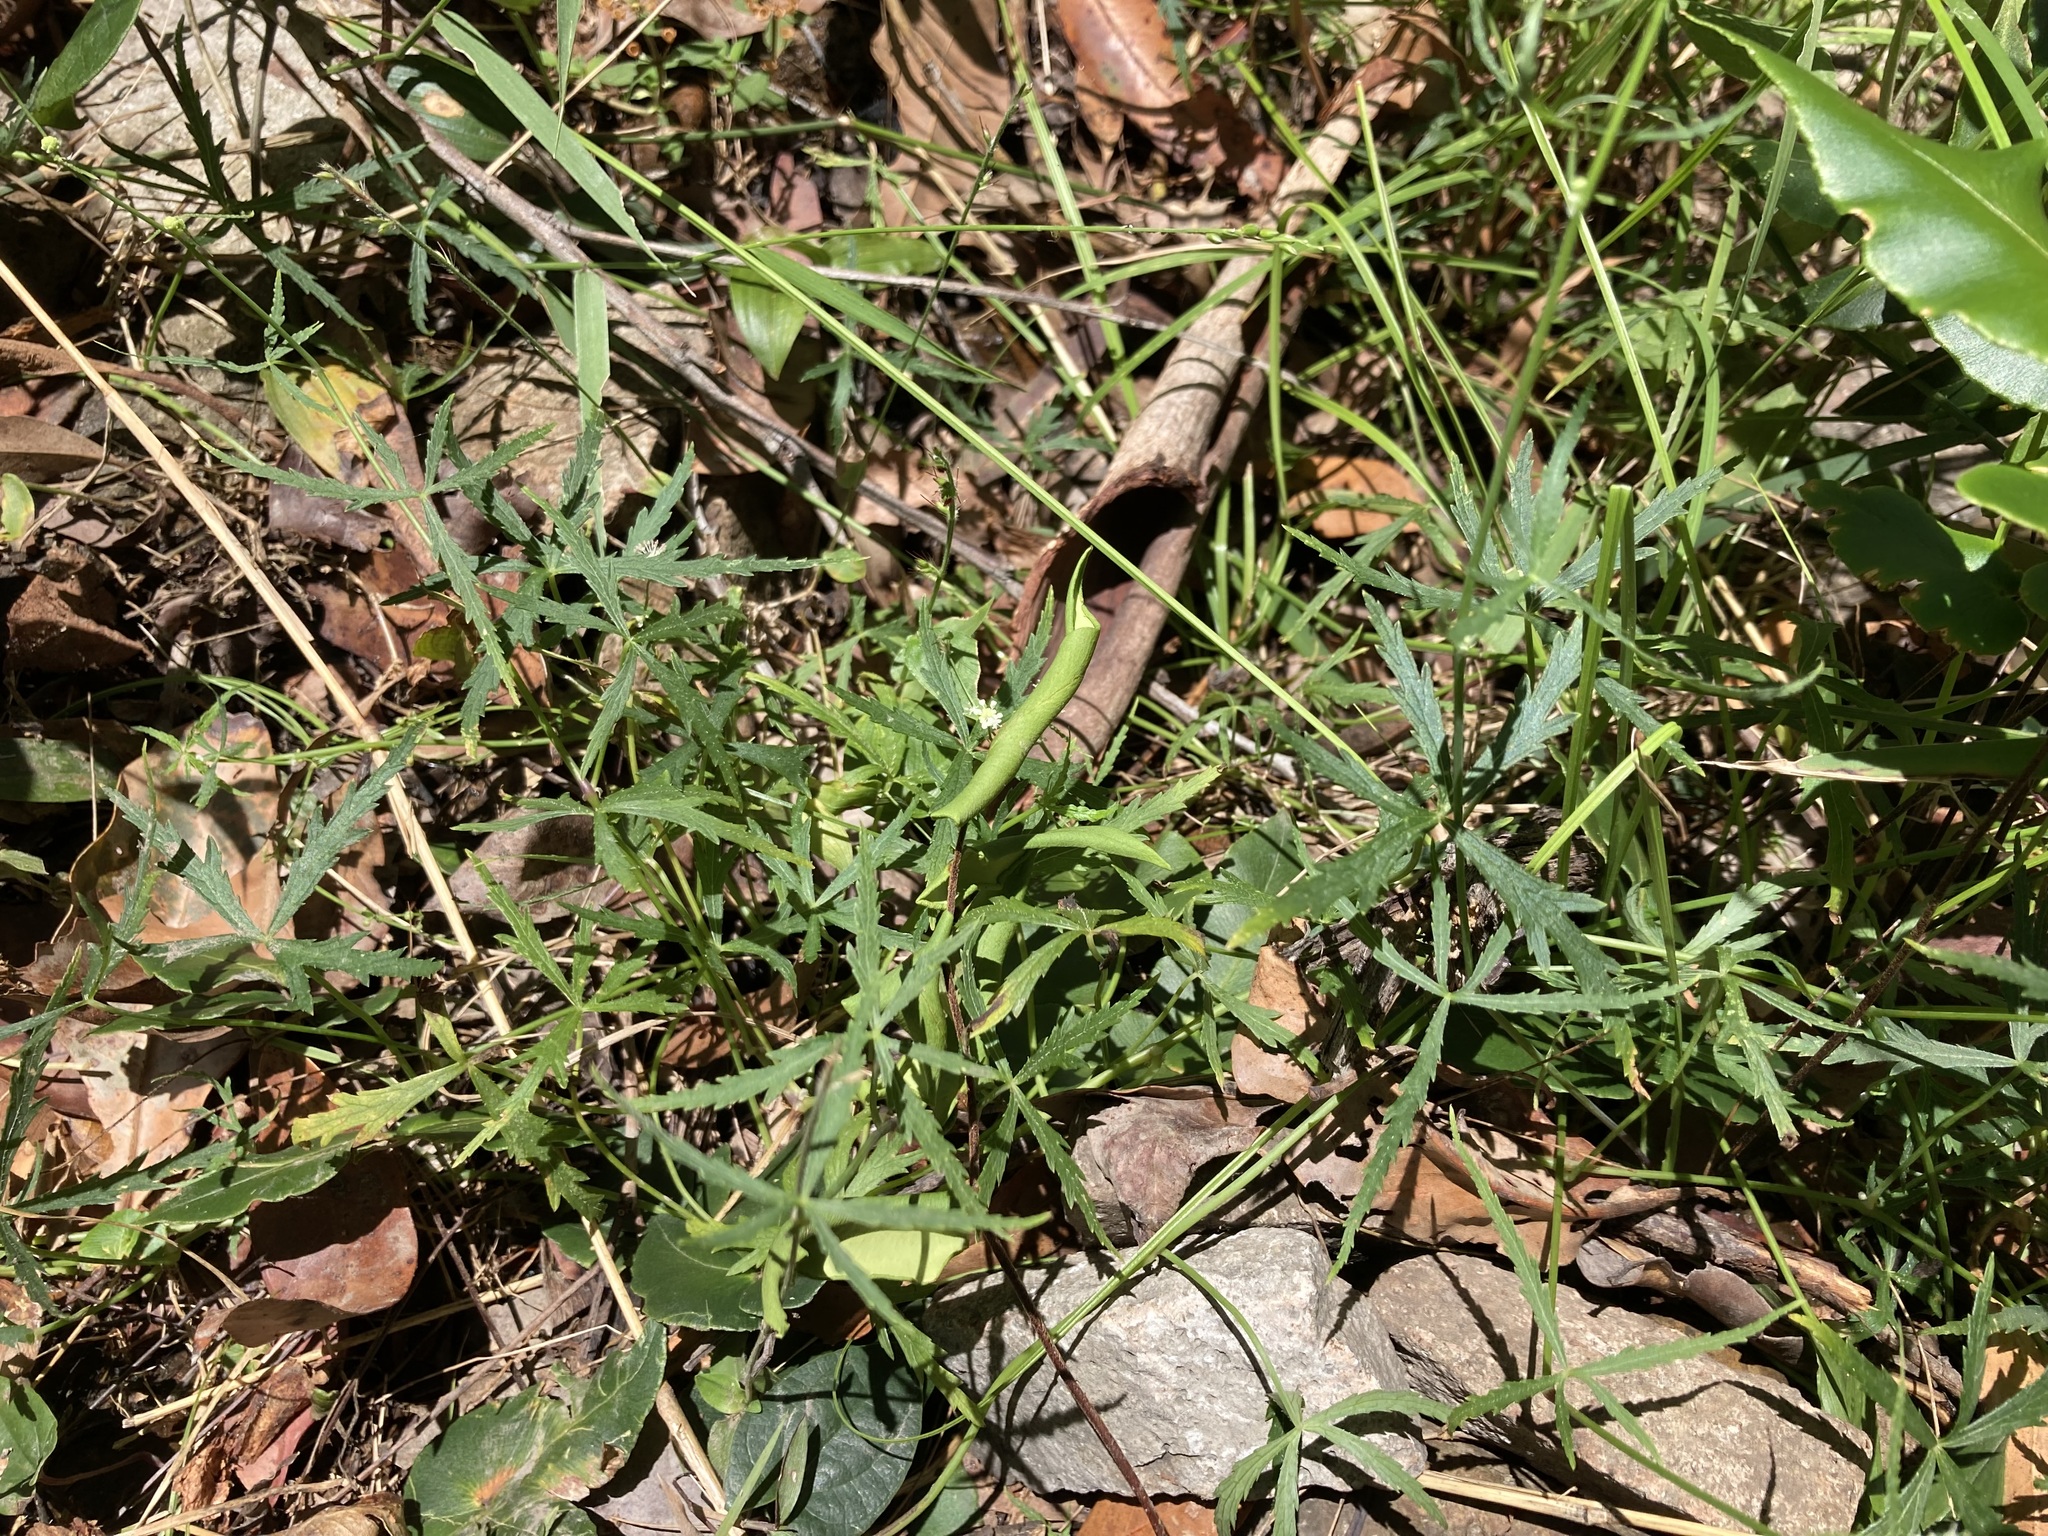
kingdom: Plantae
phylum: Tracheophyta
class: Magnoliopsida
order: Apiales
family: Araliaceae
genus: Hydrocotyle
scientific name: Hydrocotyle geraniifolia
